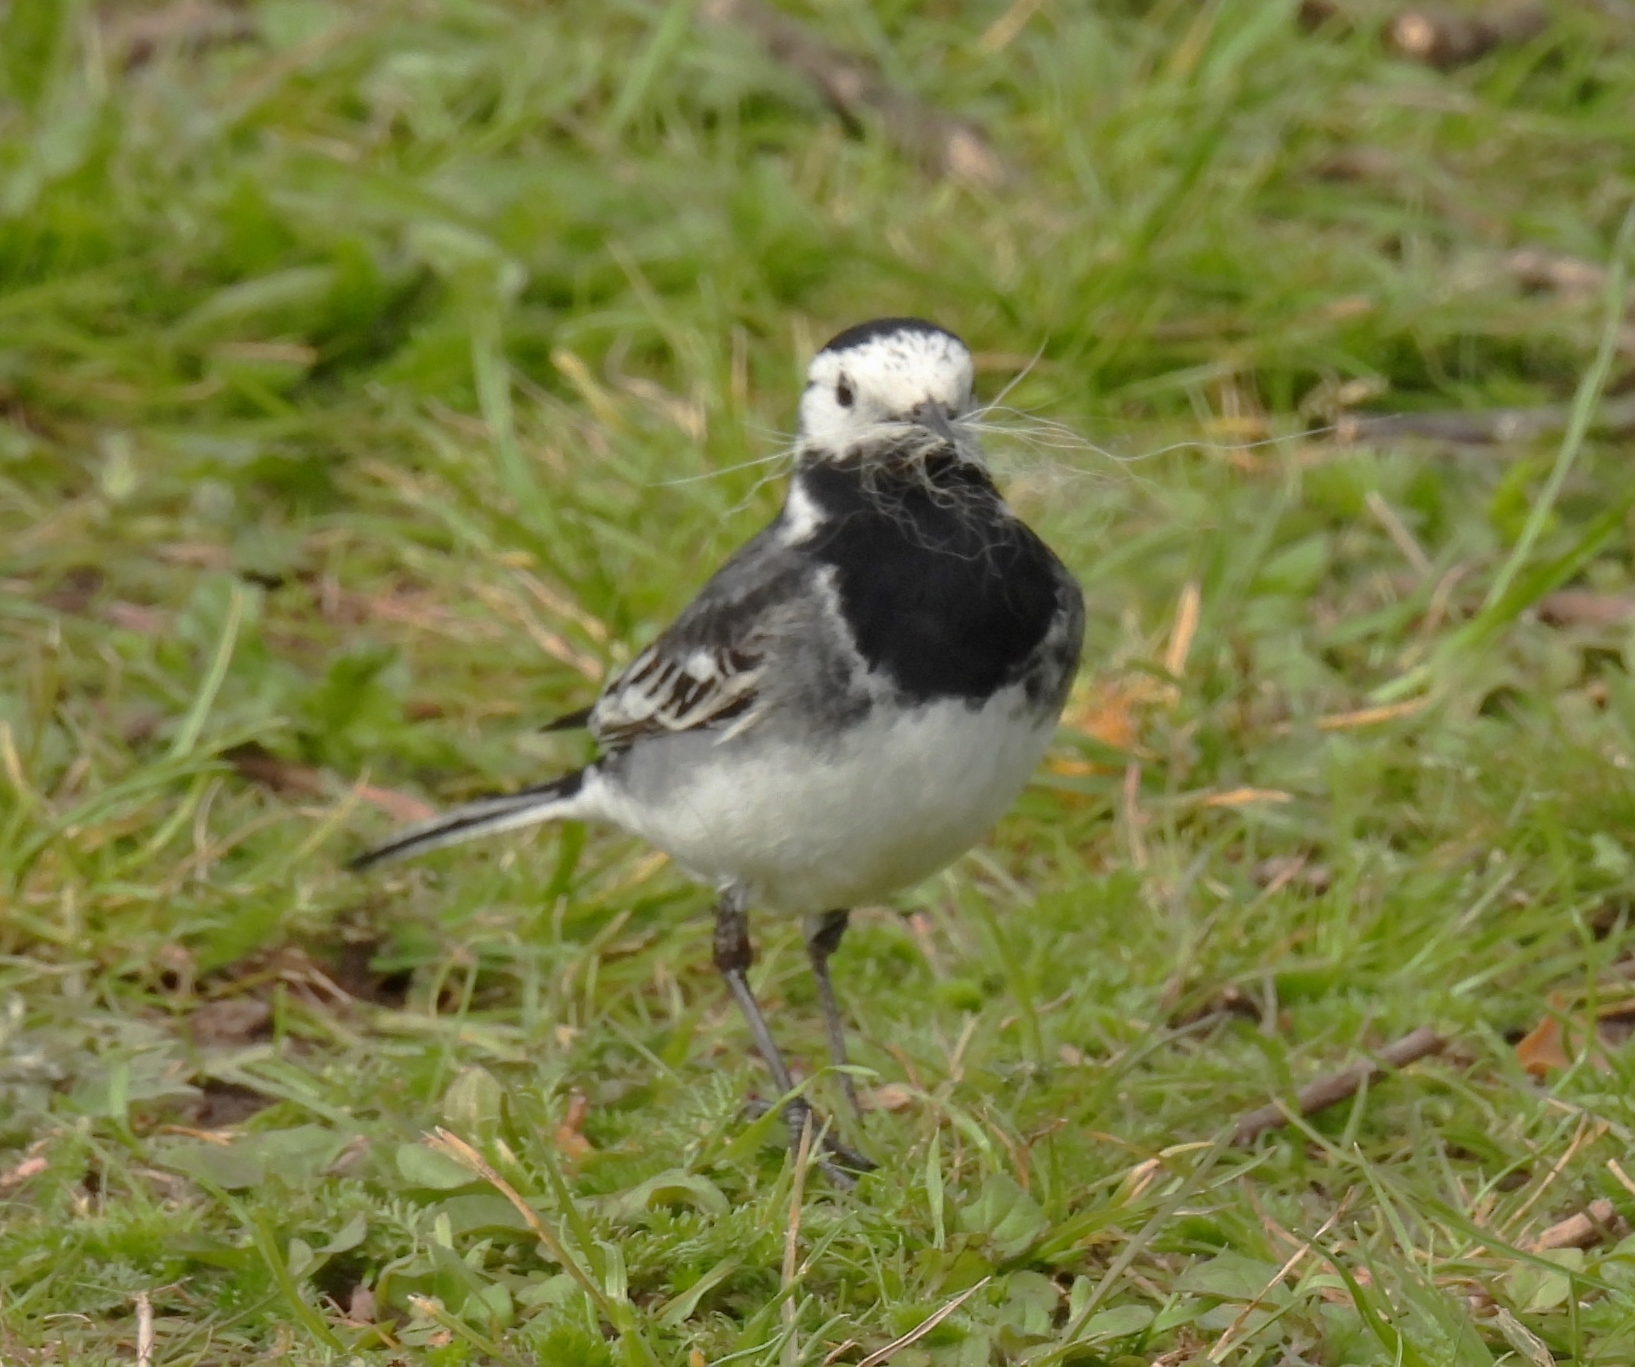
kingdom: Animalia
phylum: Chordata
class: Aves
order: Passeriformes
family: Motacillidae
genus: Motacilla
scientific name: Motacilla alba
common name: White wagtail
